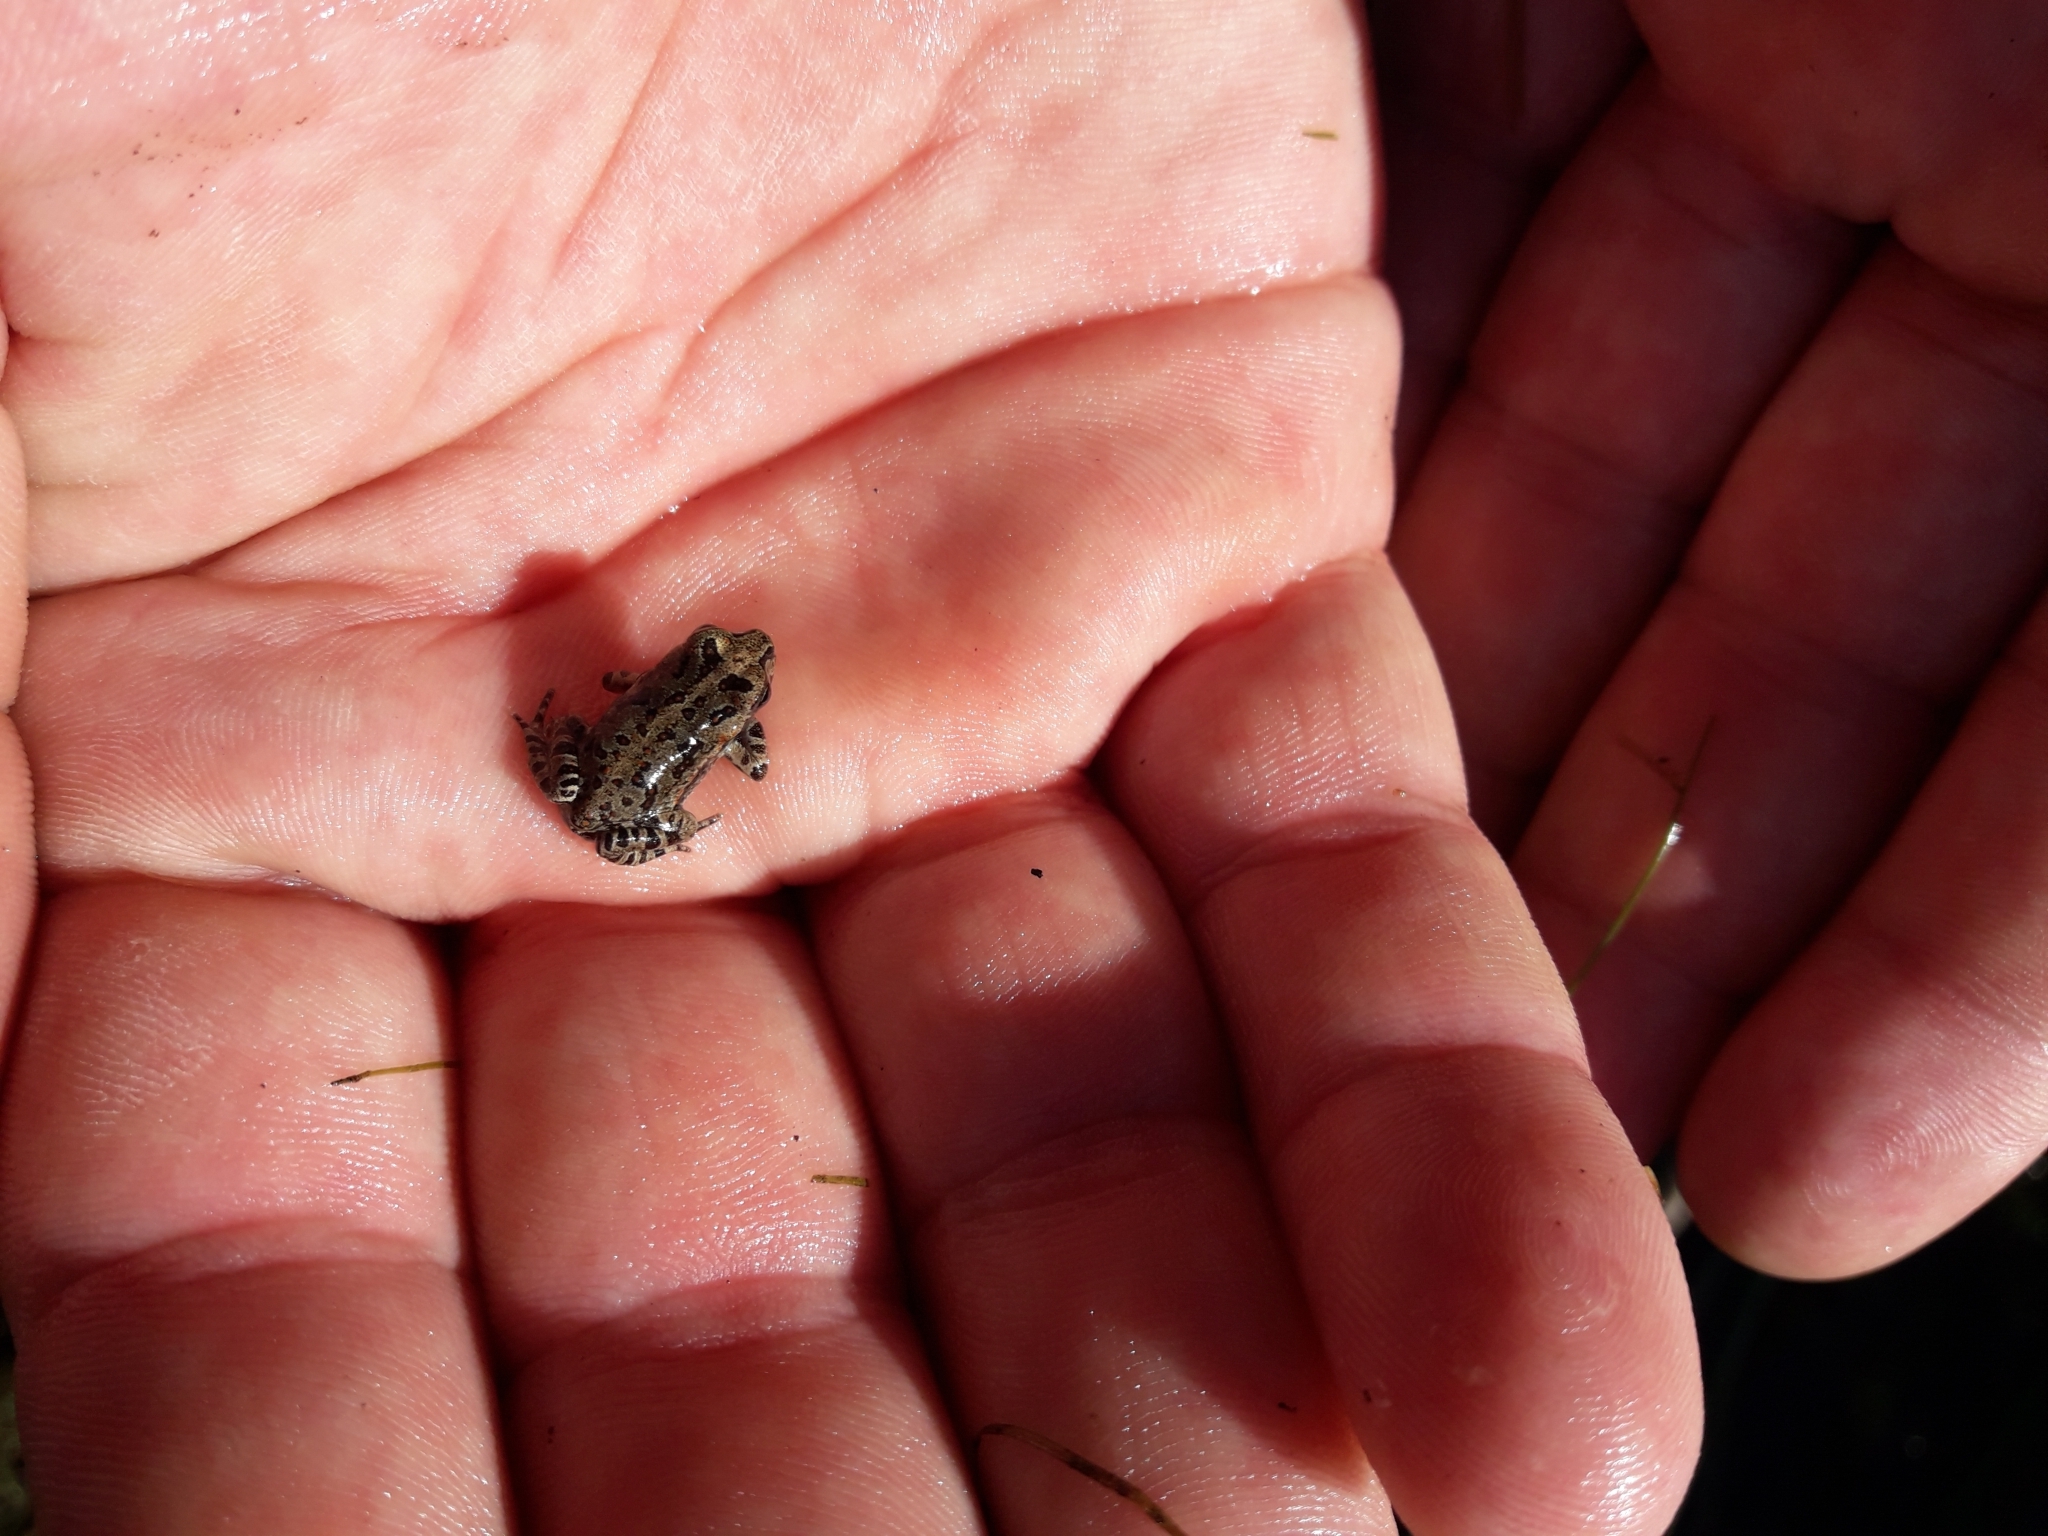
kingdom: Animalia
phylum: Chordata
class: Amphibia
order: Anura
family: Bufonidae
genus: Rhinella
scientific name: Rhinella arenarum
